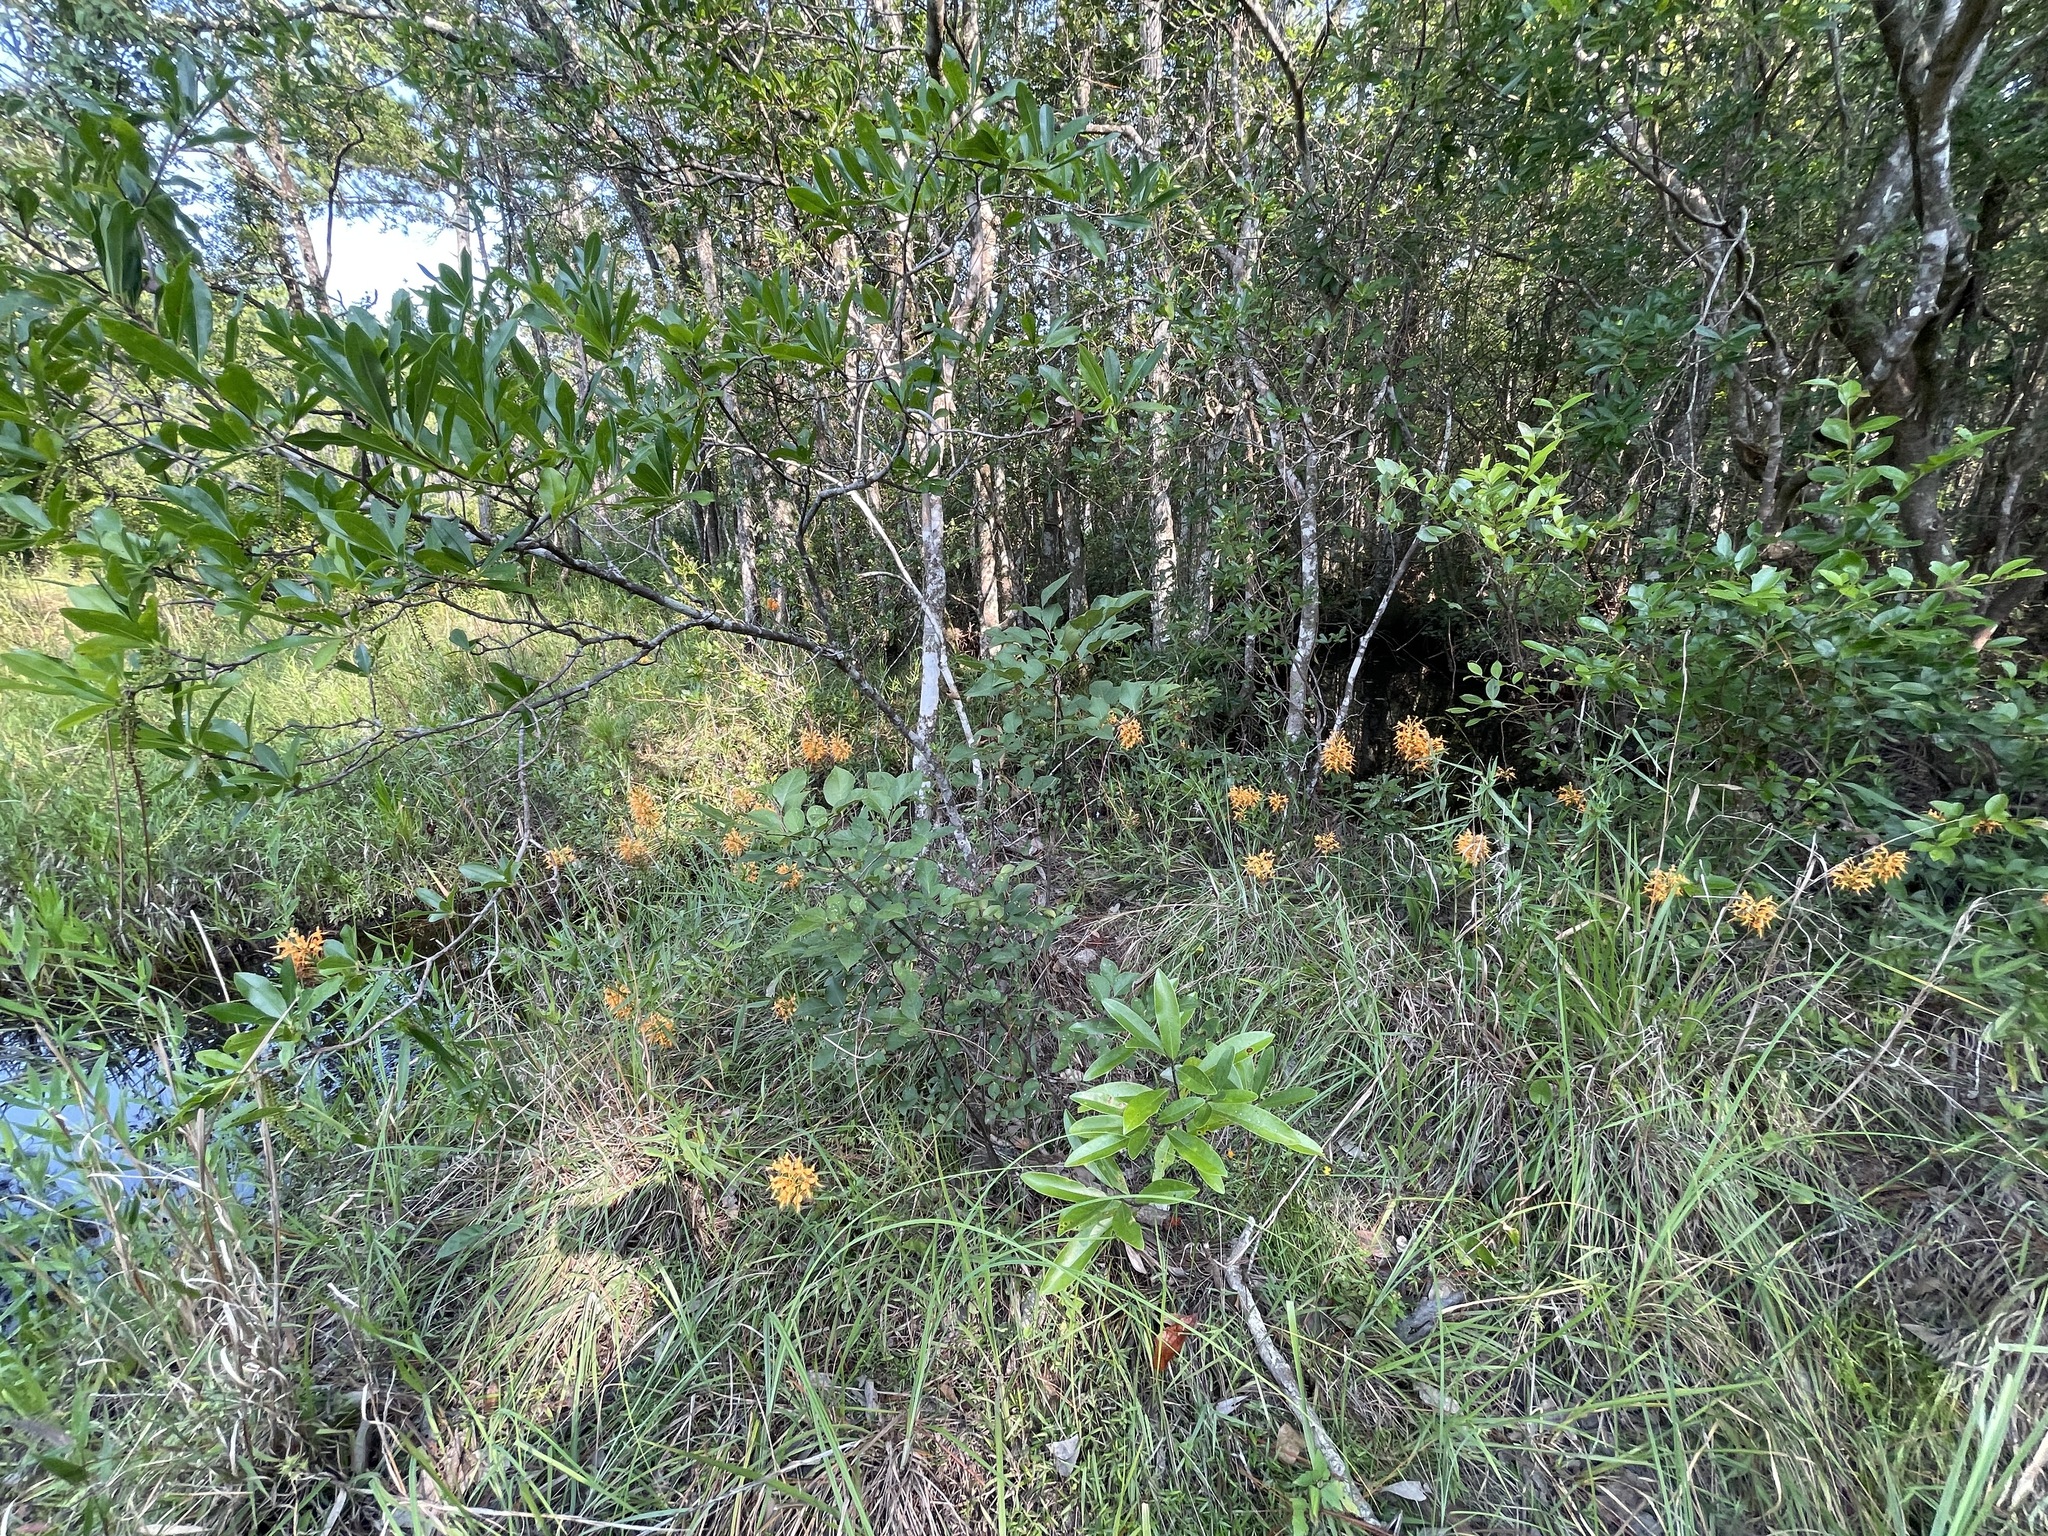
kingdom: Plantae
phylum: Tracheophyta
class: Liliopsida
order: Asparagales
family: Orchidaceae
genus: Platanthera
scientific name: Platanthera ciliaris
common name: Yellow fringed orchid
